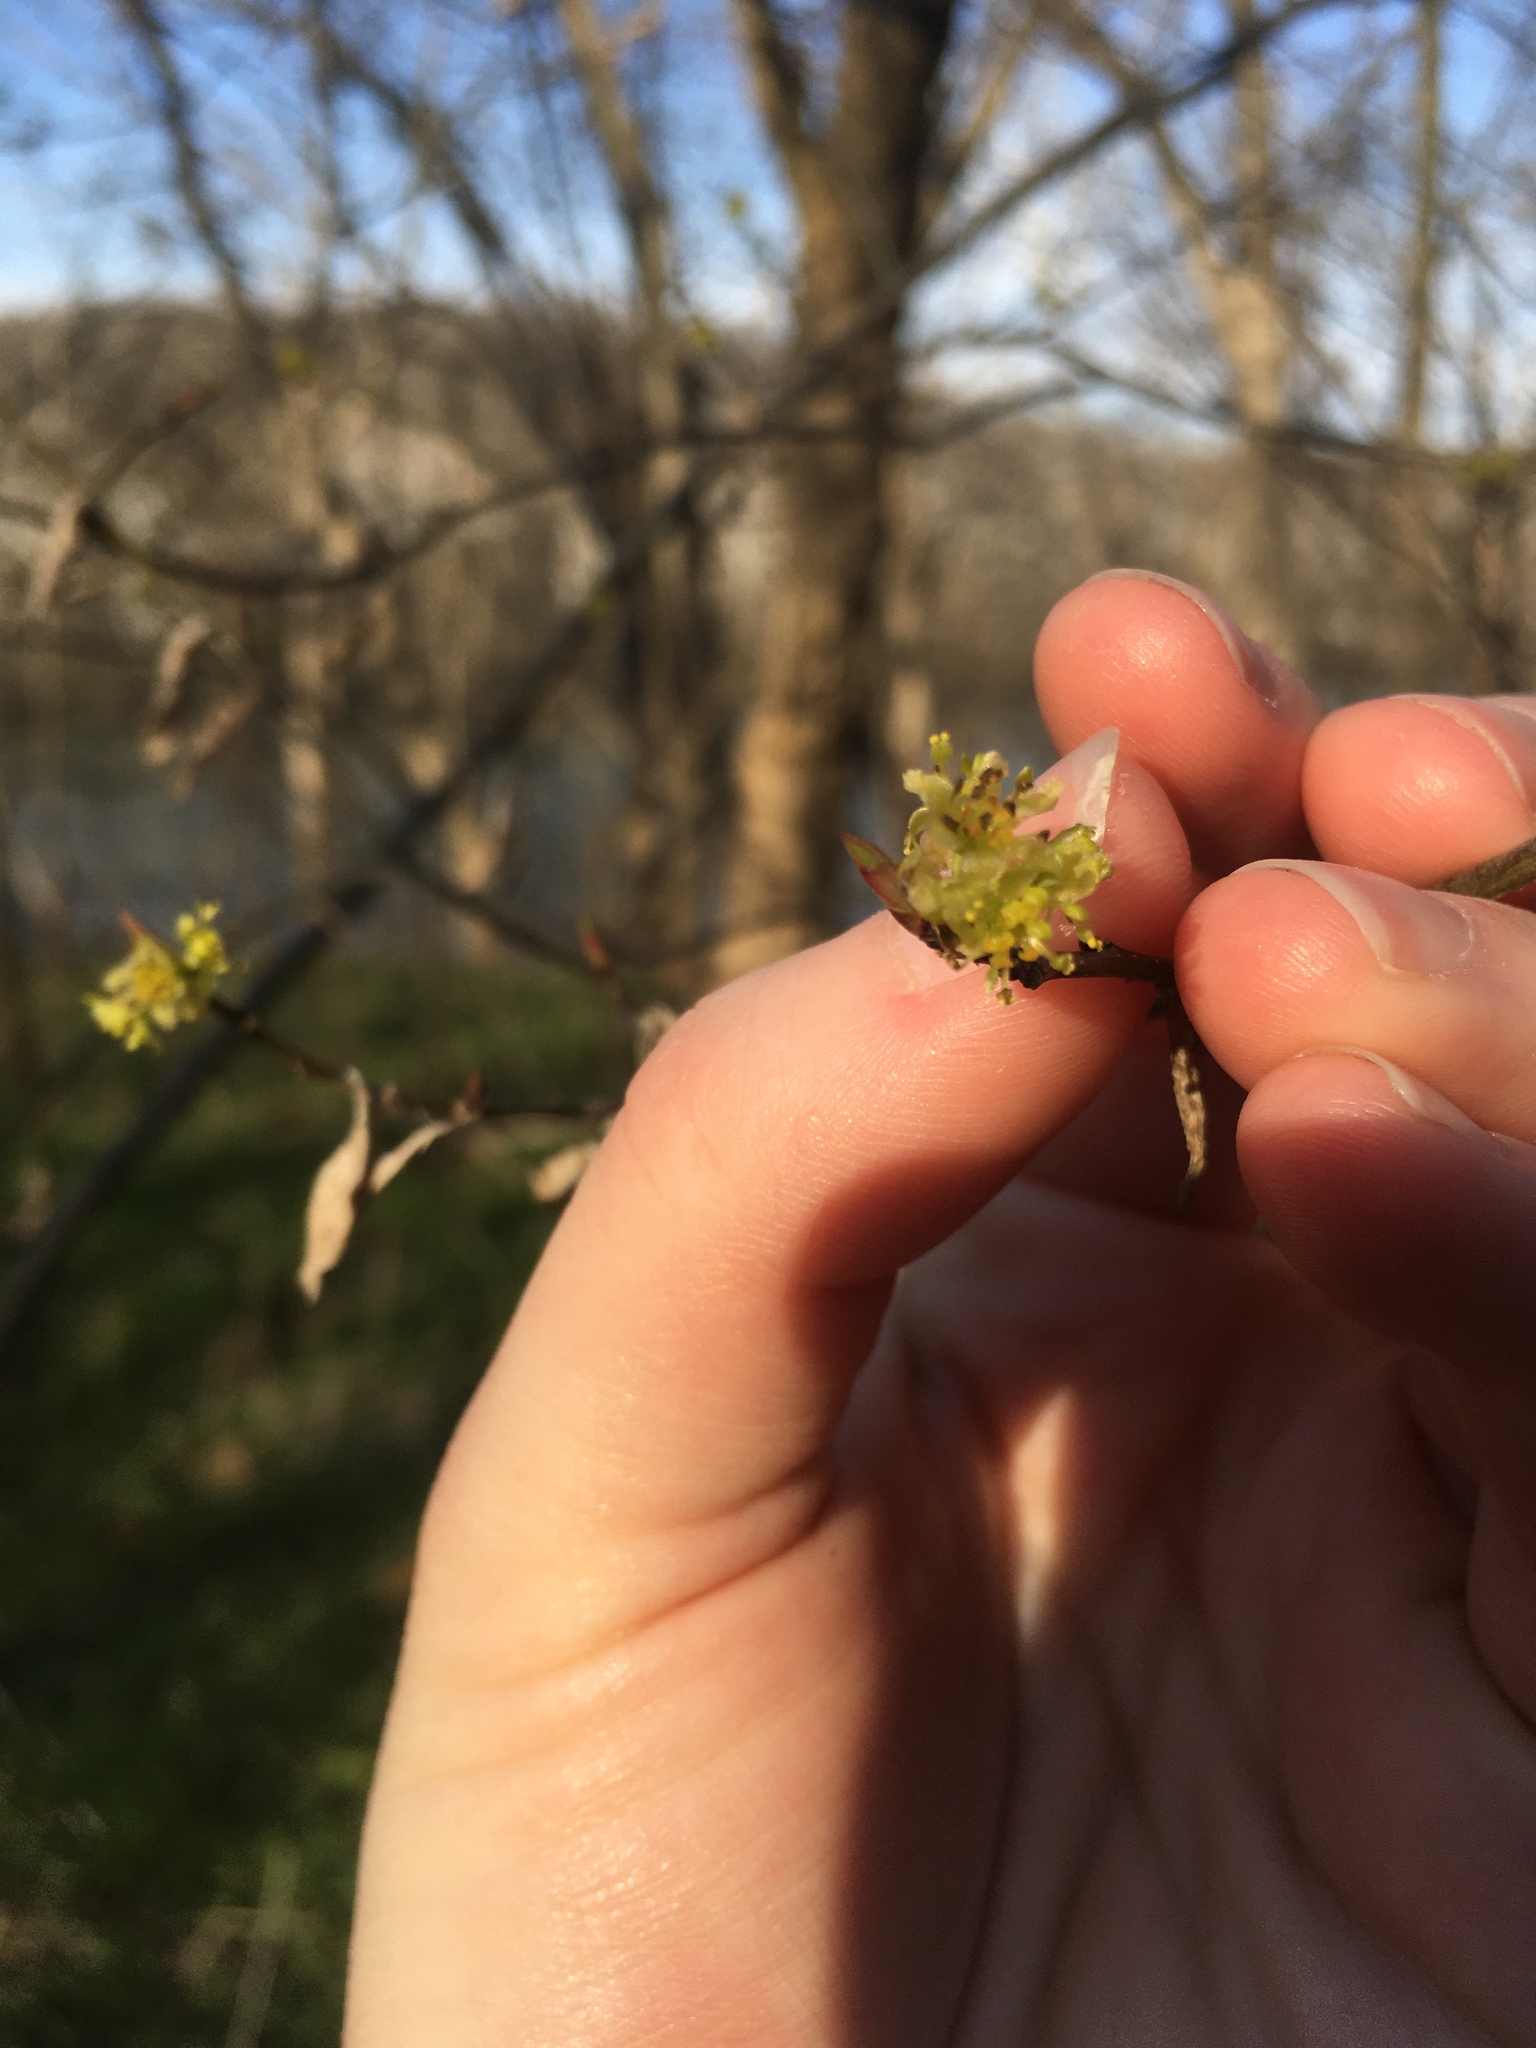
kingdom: Plantae
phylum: Tracheophyta
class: Magnoliopsida
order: Laurales
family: Lauraceae
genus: Lindera
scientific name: Lindera benzoin
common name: Spicebush
